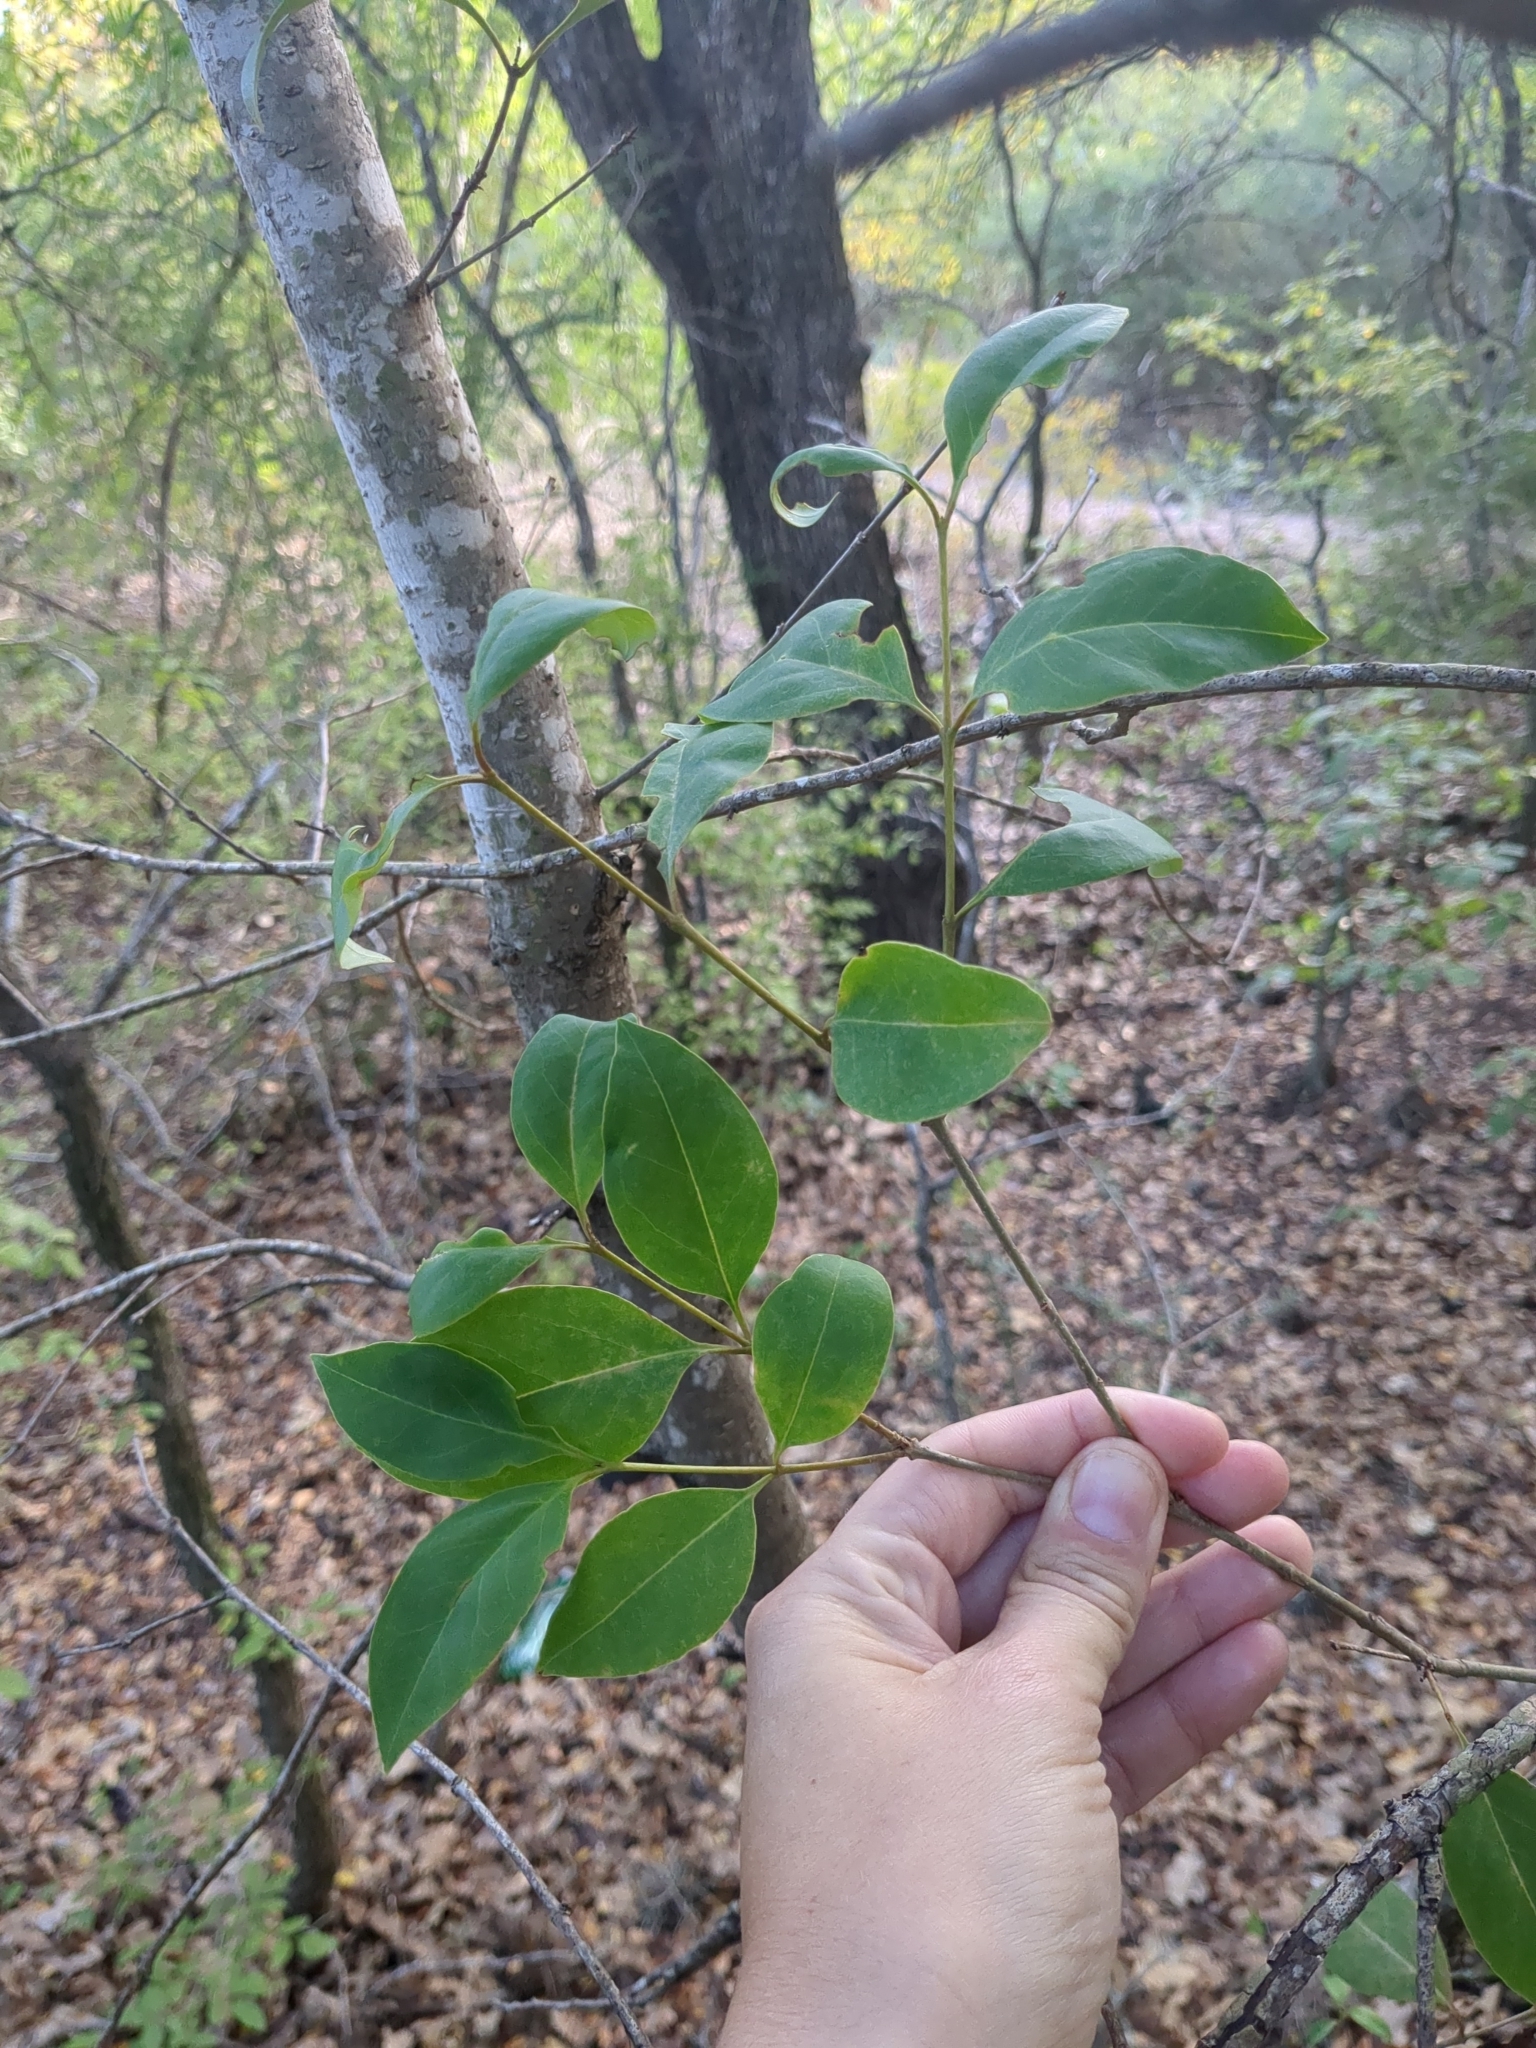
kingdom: Plantae
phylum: Tracheophyta
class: Magnoliopsida
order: Lamiales
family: Oleaceae
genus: Ligustrum
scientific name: Ligustrum lucidum
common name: Glossy privet
